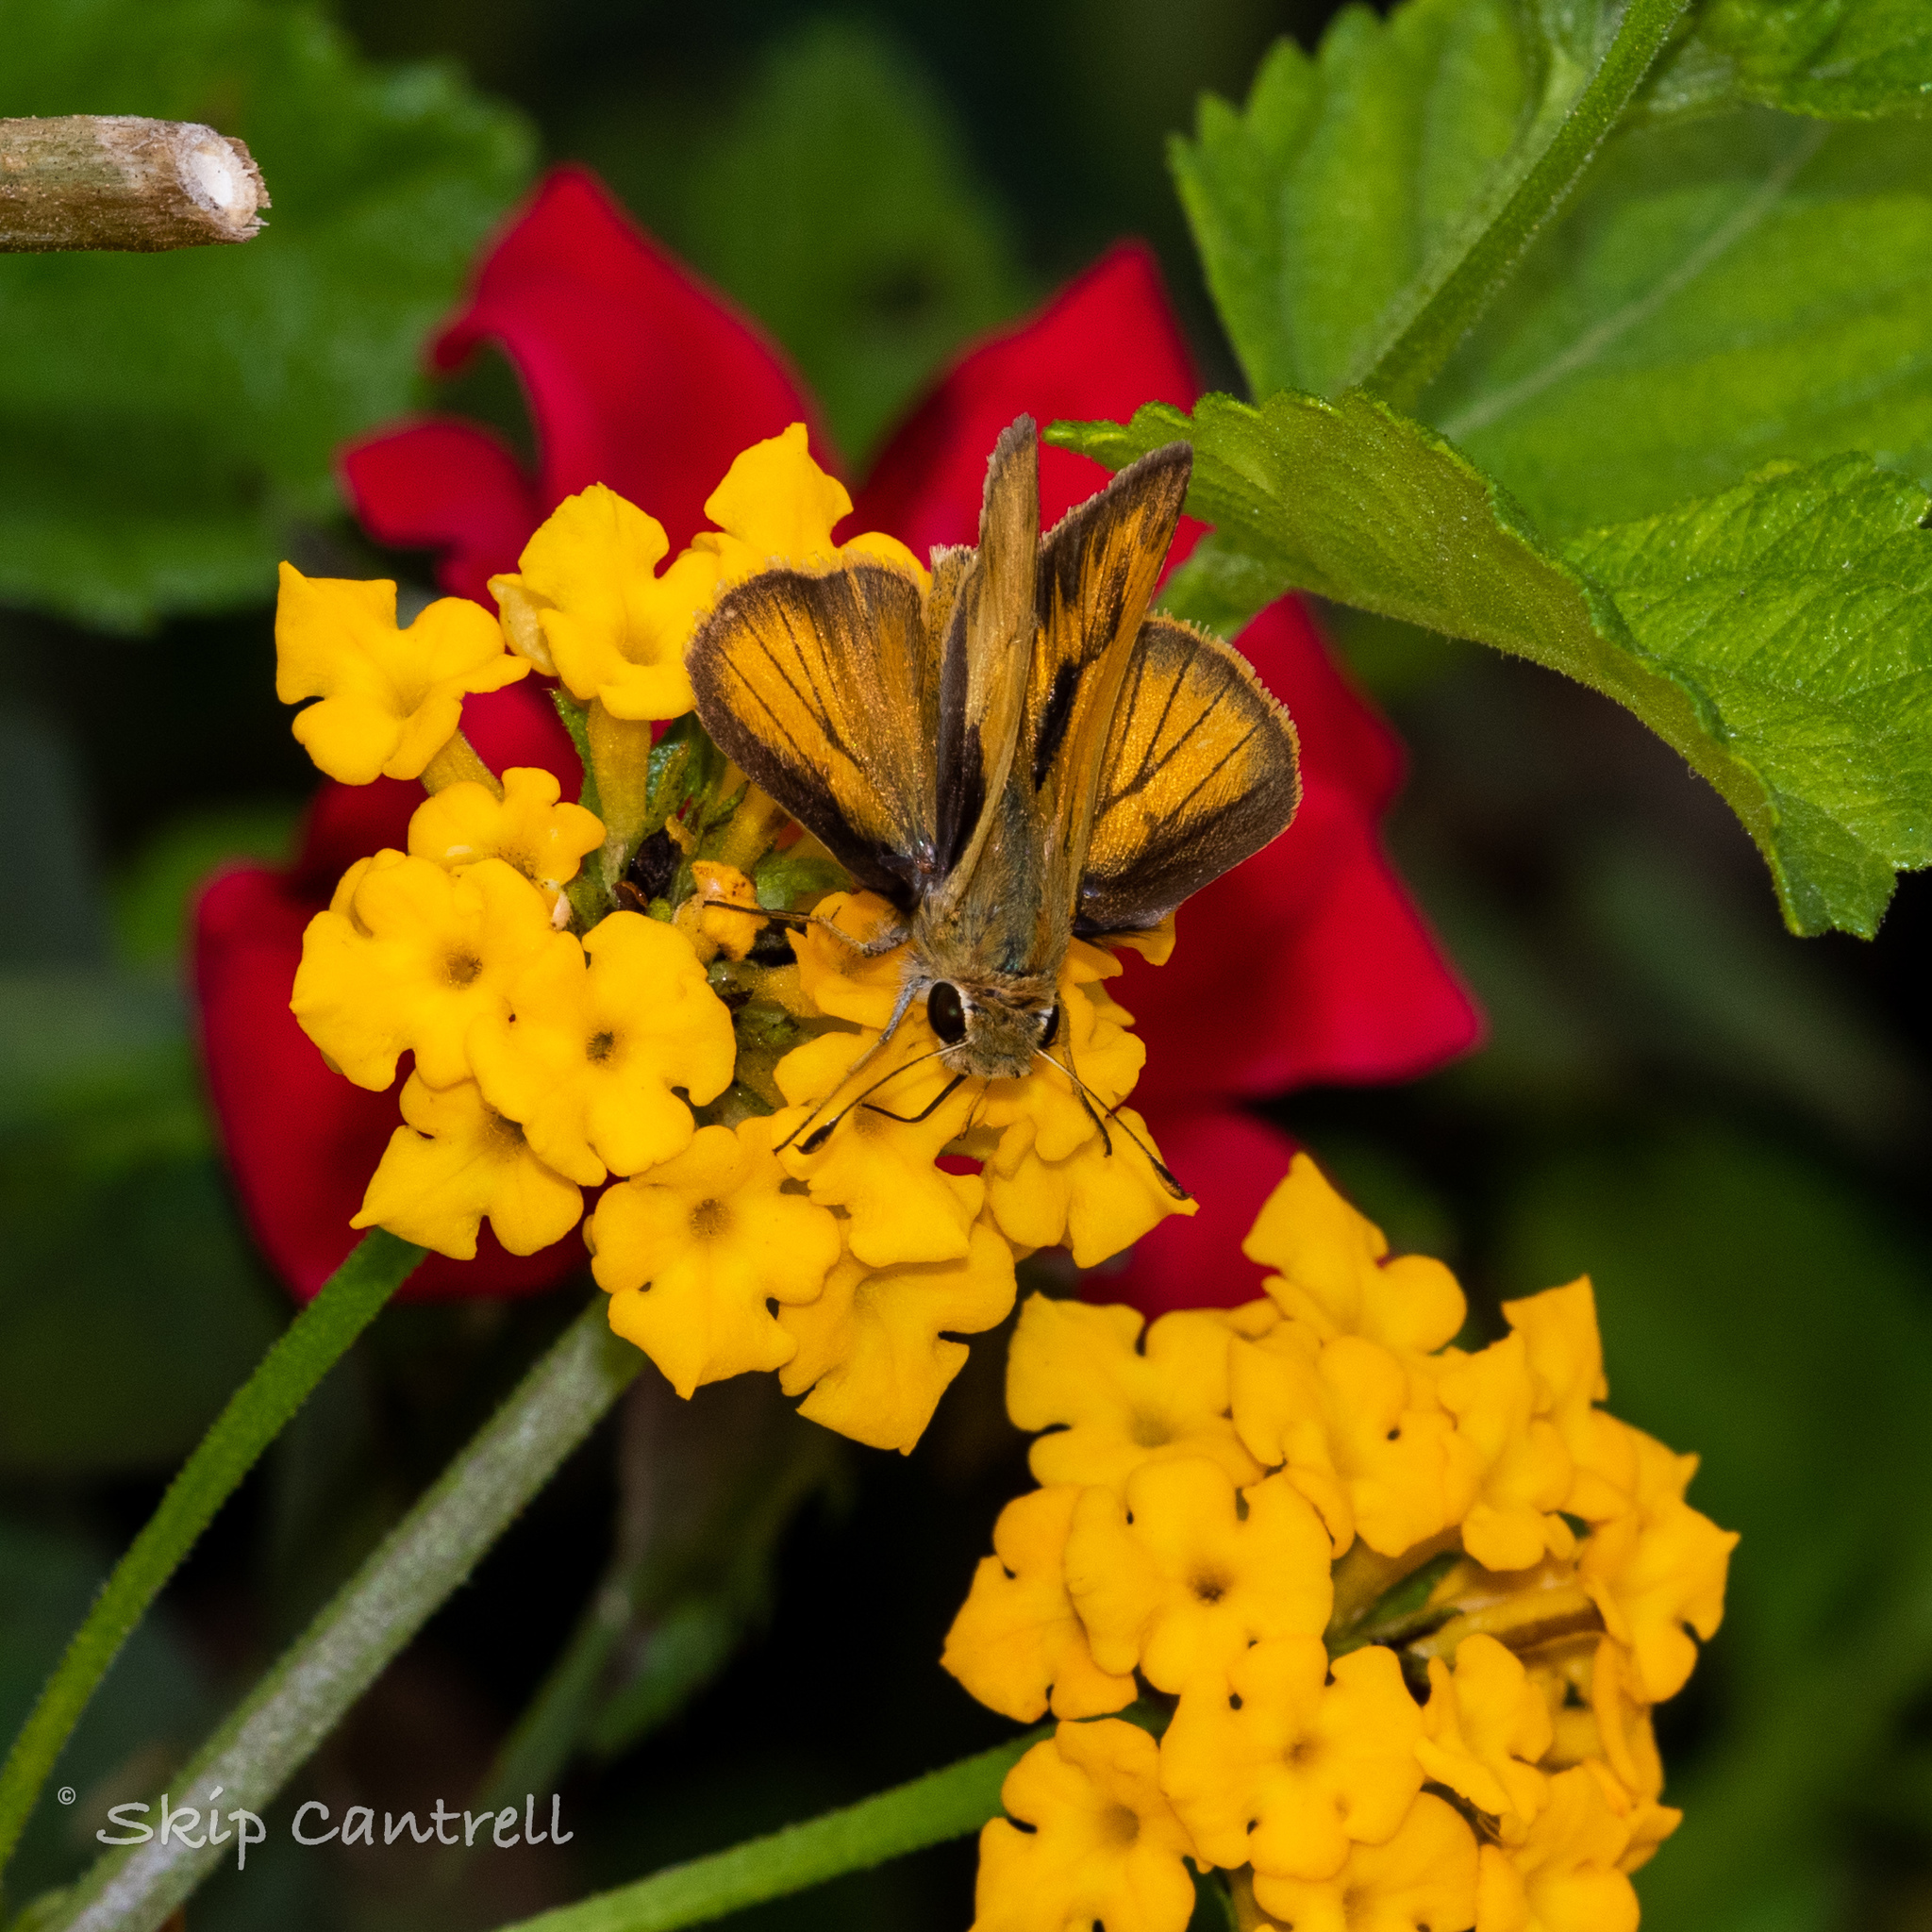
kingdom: Animalia
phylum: Arthropoda
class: Insecta
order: Lepidoptera
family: Hesperiidae
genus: Polites
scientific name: Polites vibex
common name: Whirlabout
